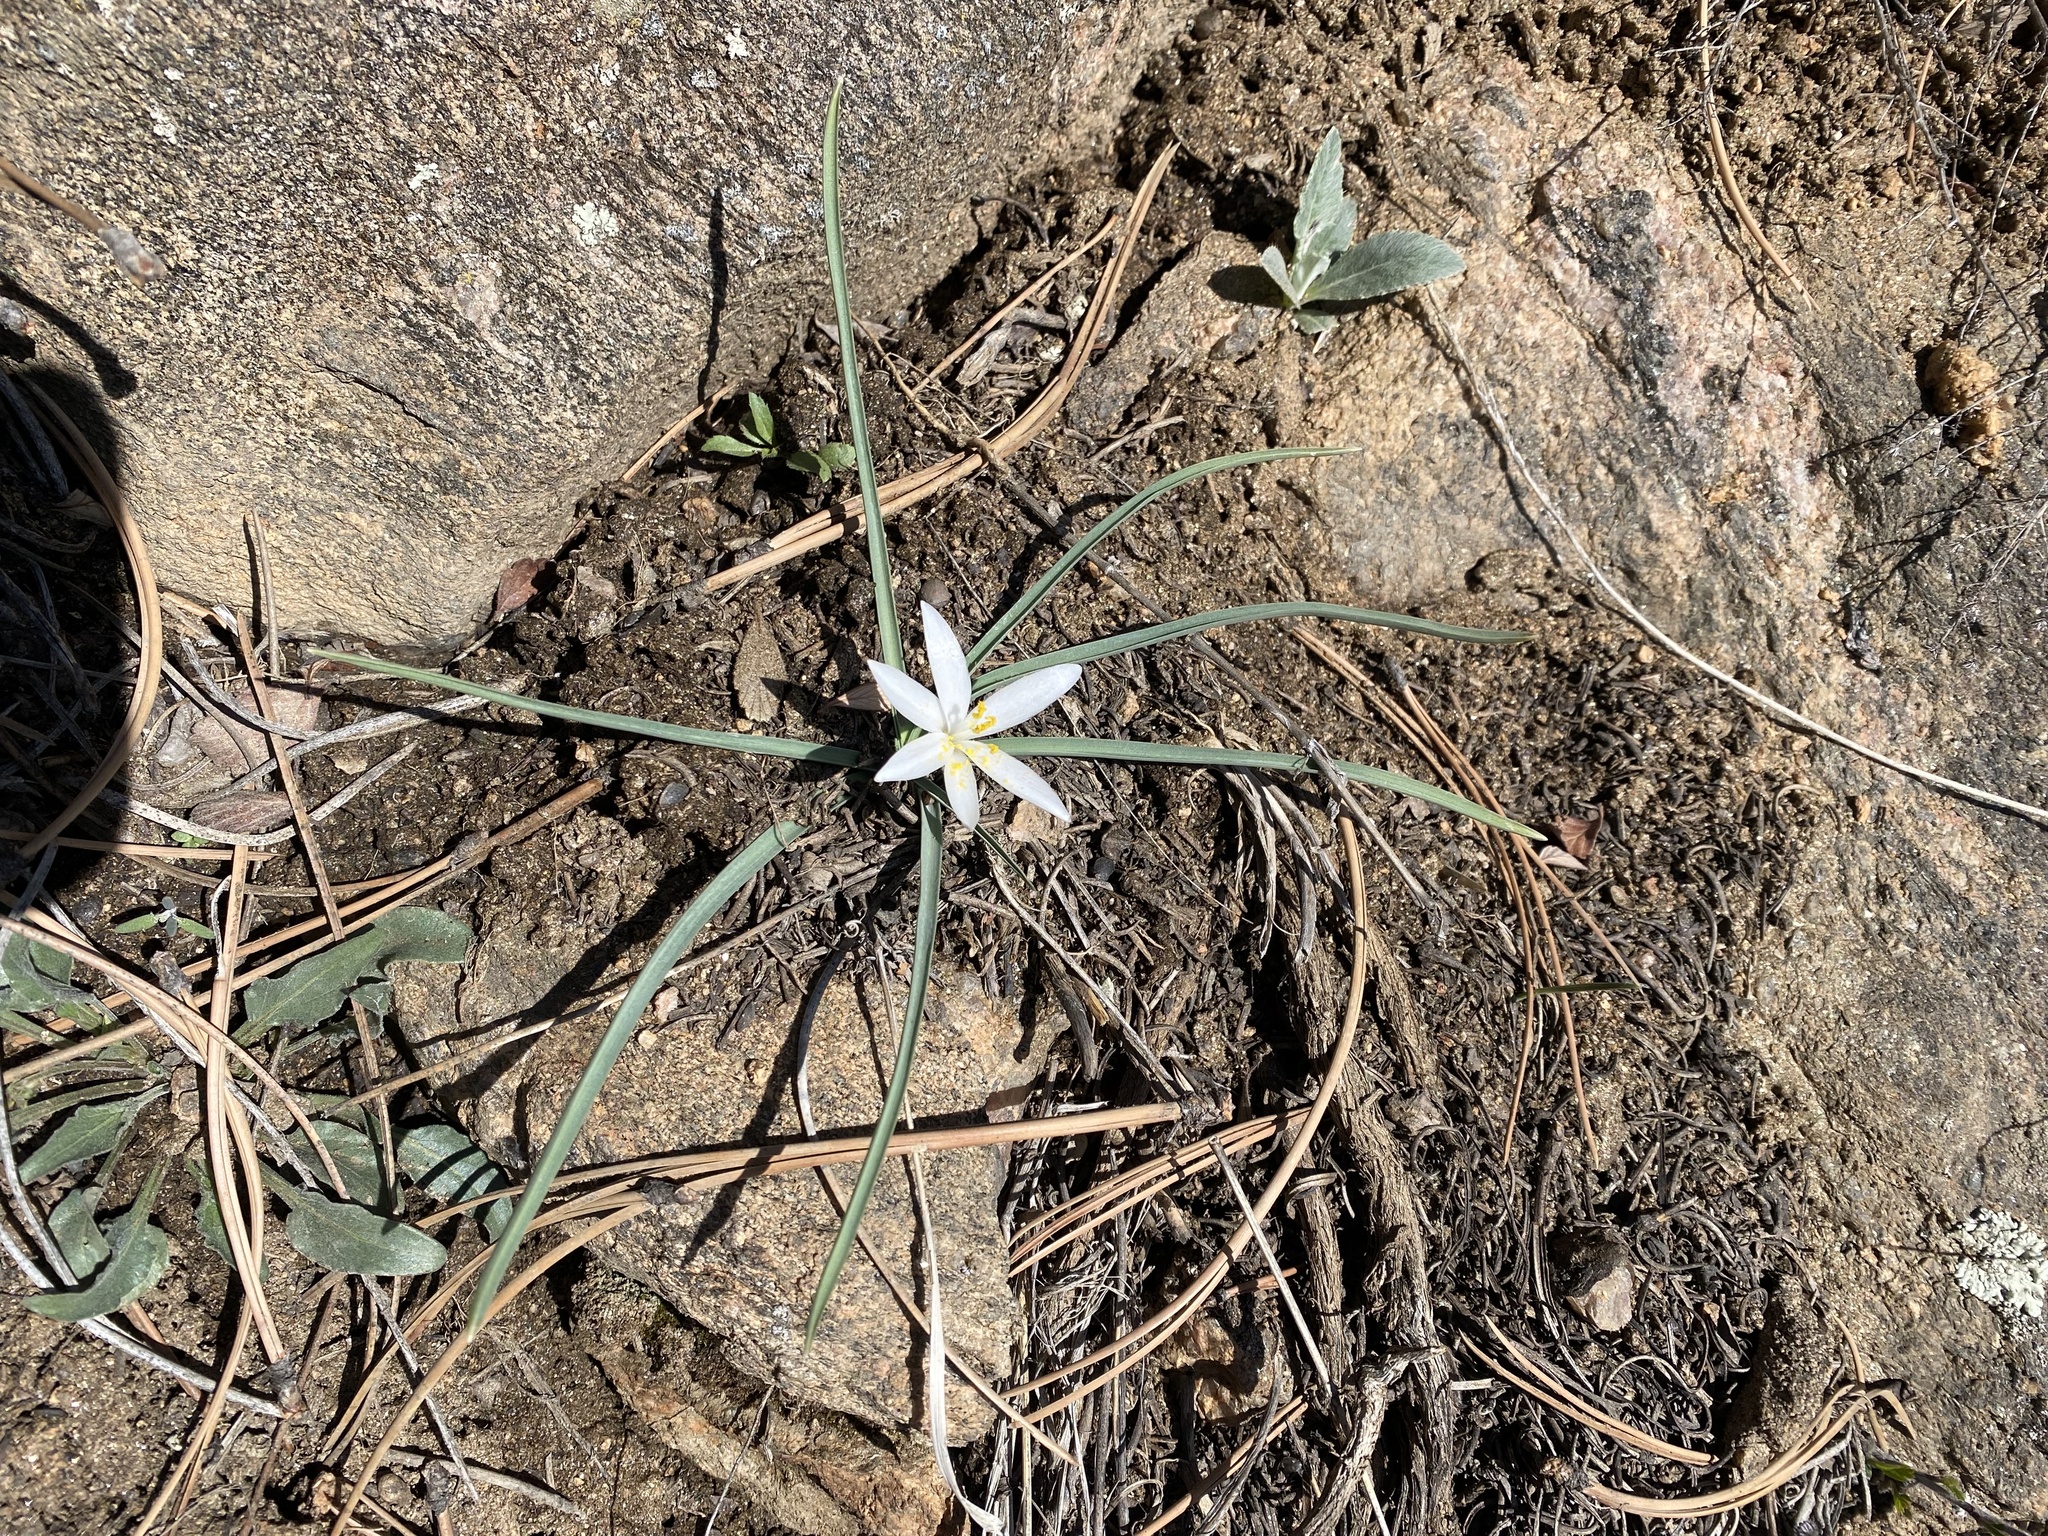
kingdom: Plantae
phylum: Tracheophyta
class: Liliopsida
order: Asparagales
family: Asparagaceae
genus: Leucocrinum
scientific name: Leucocrinum montanum
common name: Mountain-lily
